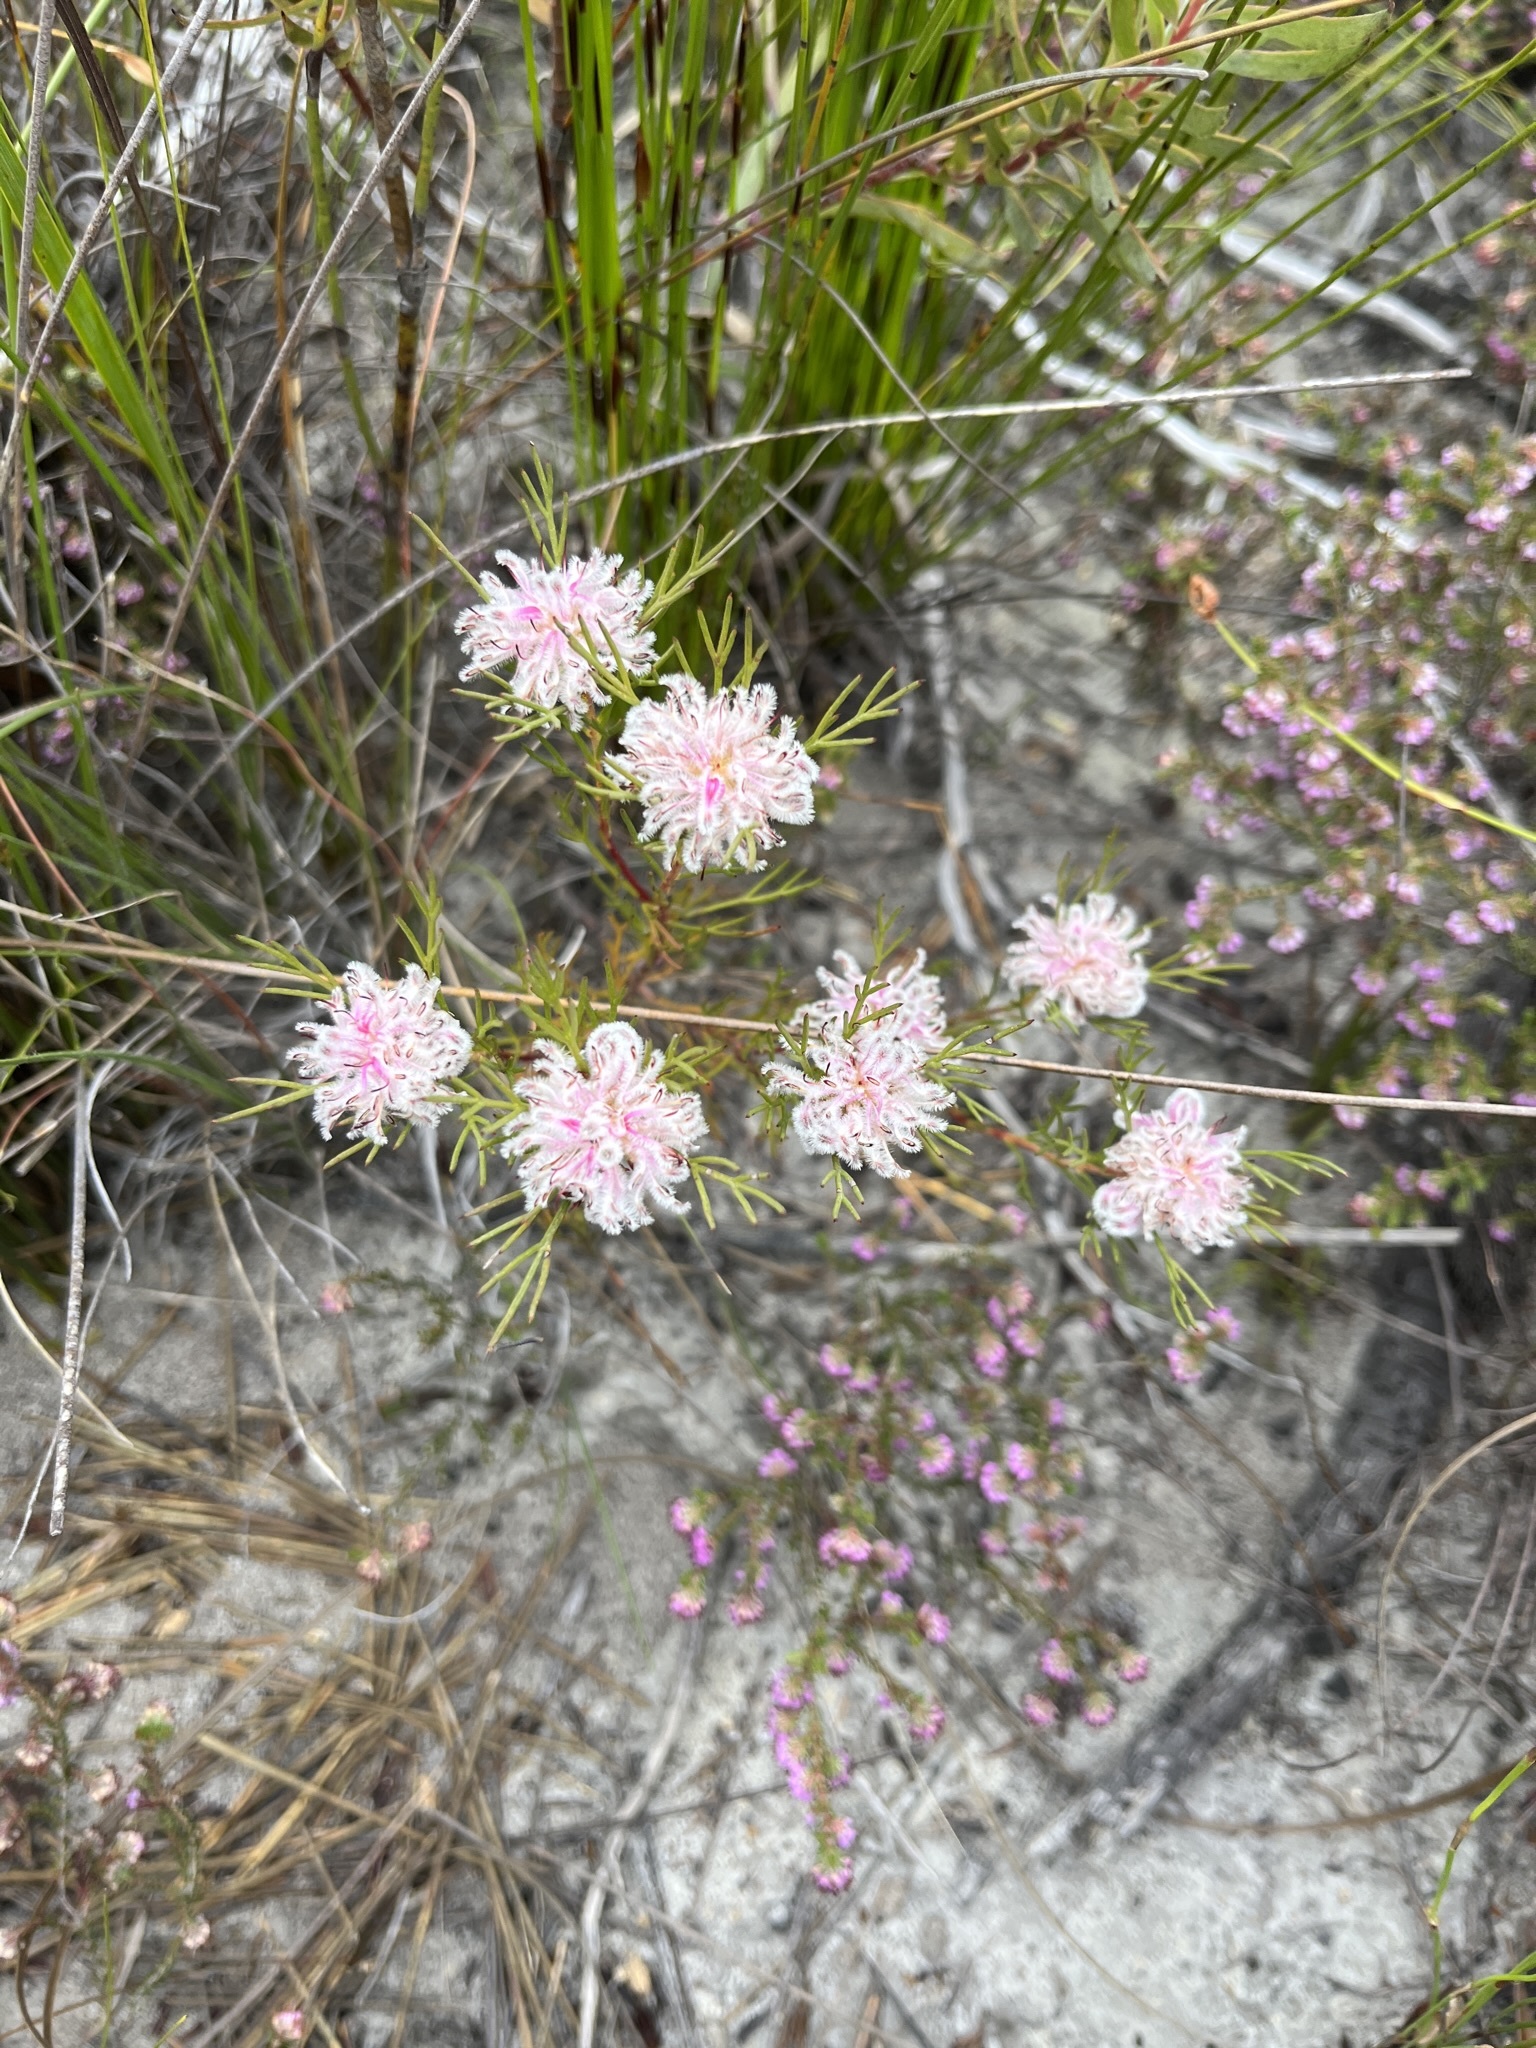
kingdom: Plantae
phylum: Tracheophyta
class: Magnoliopsida
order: Proteales
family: Proteaceae
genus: Serruria
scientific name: Serruria nervosa
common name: Fluted spiderhead
